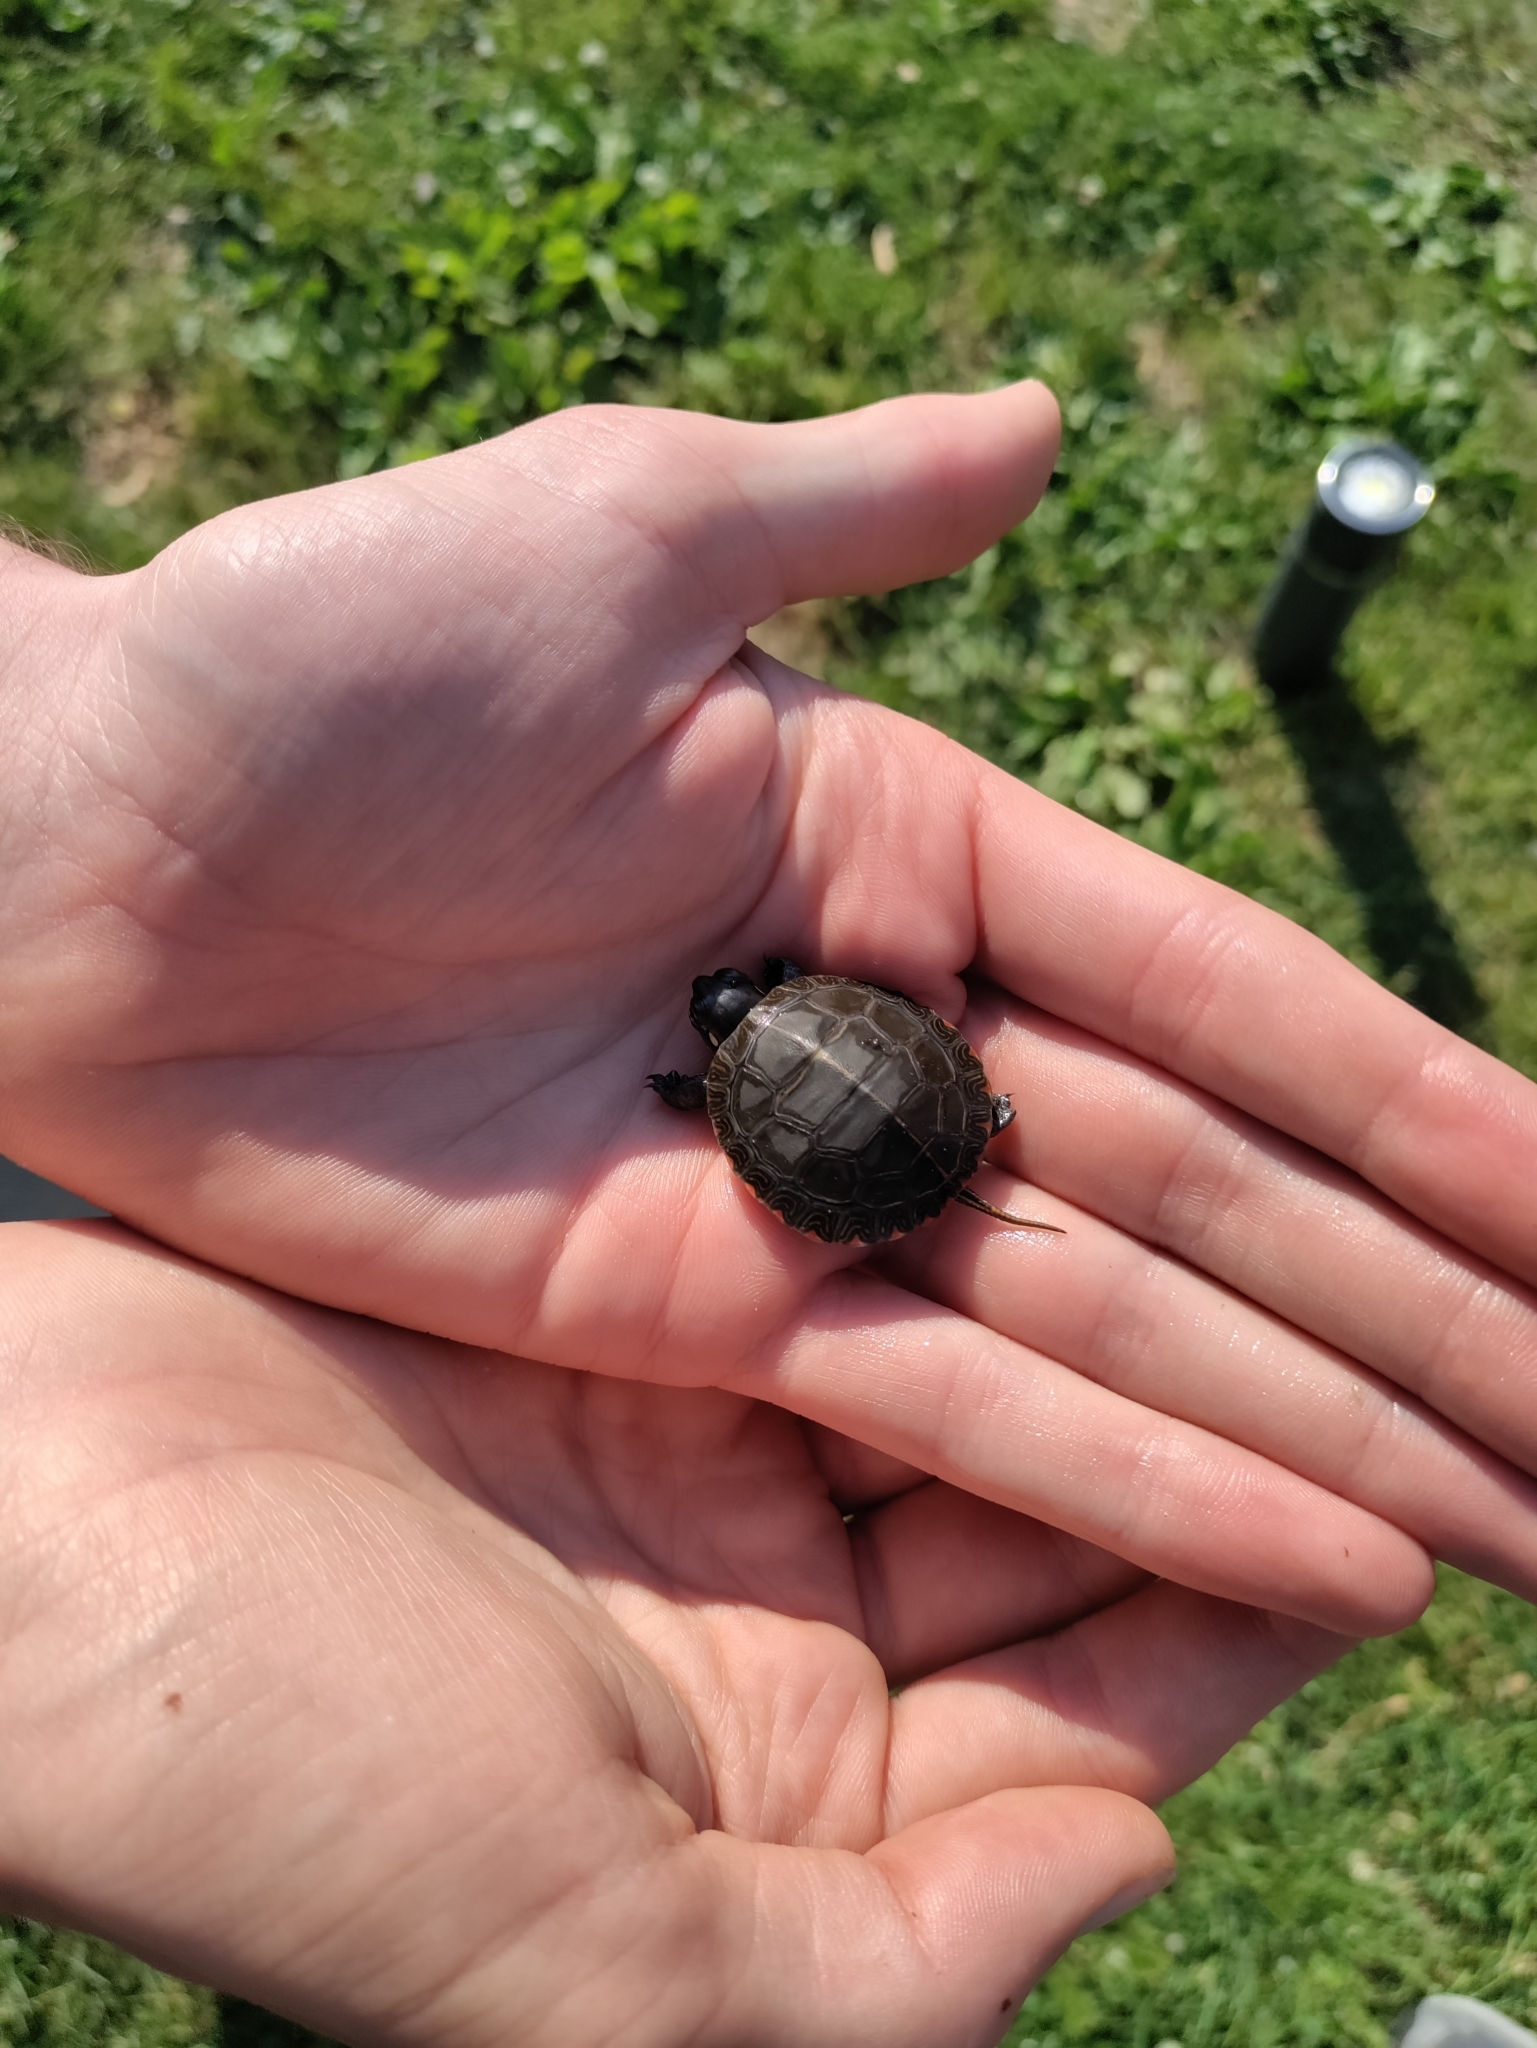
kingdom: Animalia
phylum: Chordata
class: Testudines
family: Emydidae
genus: Chrysemys
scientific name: Chrysemys picta
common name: Painted turtle
